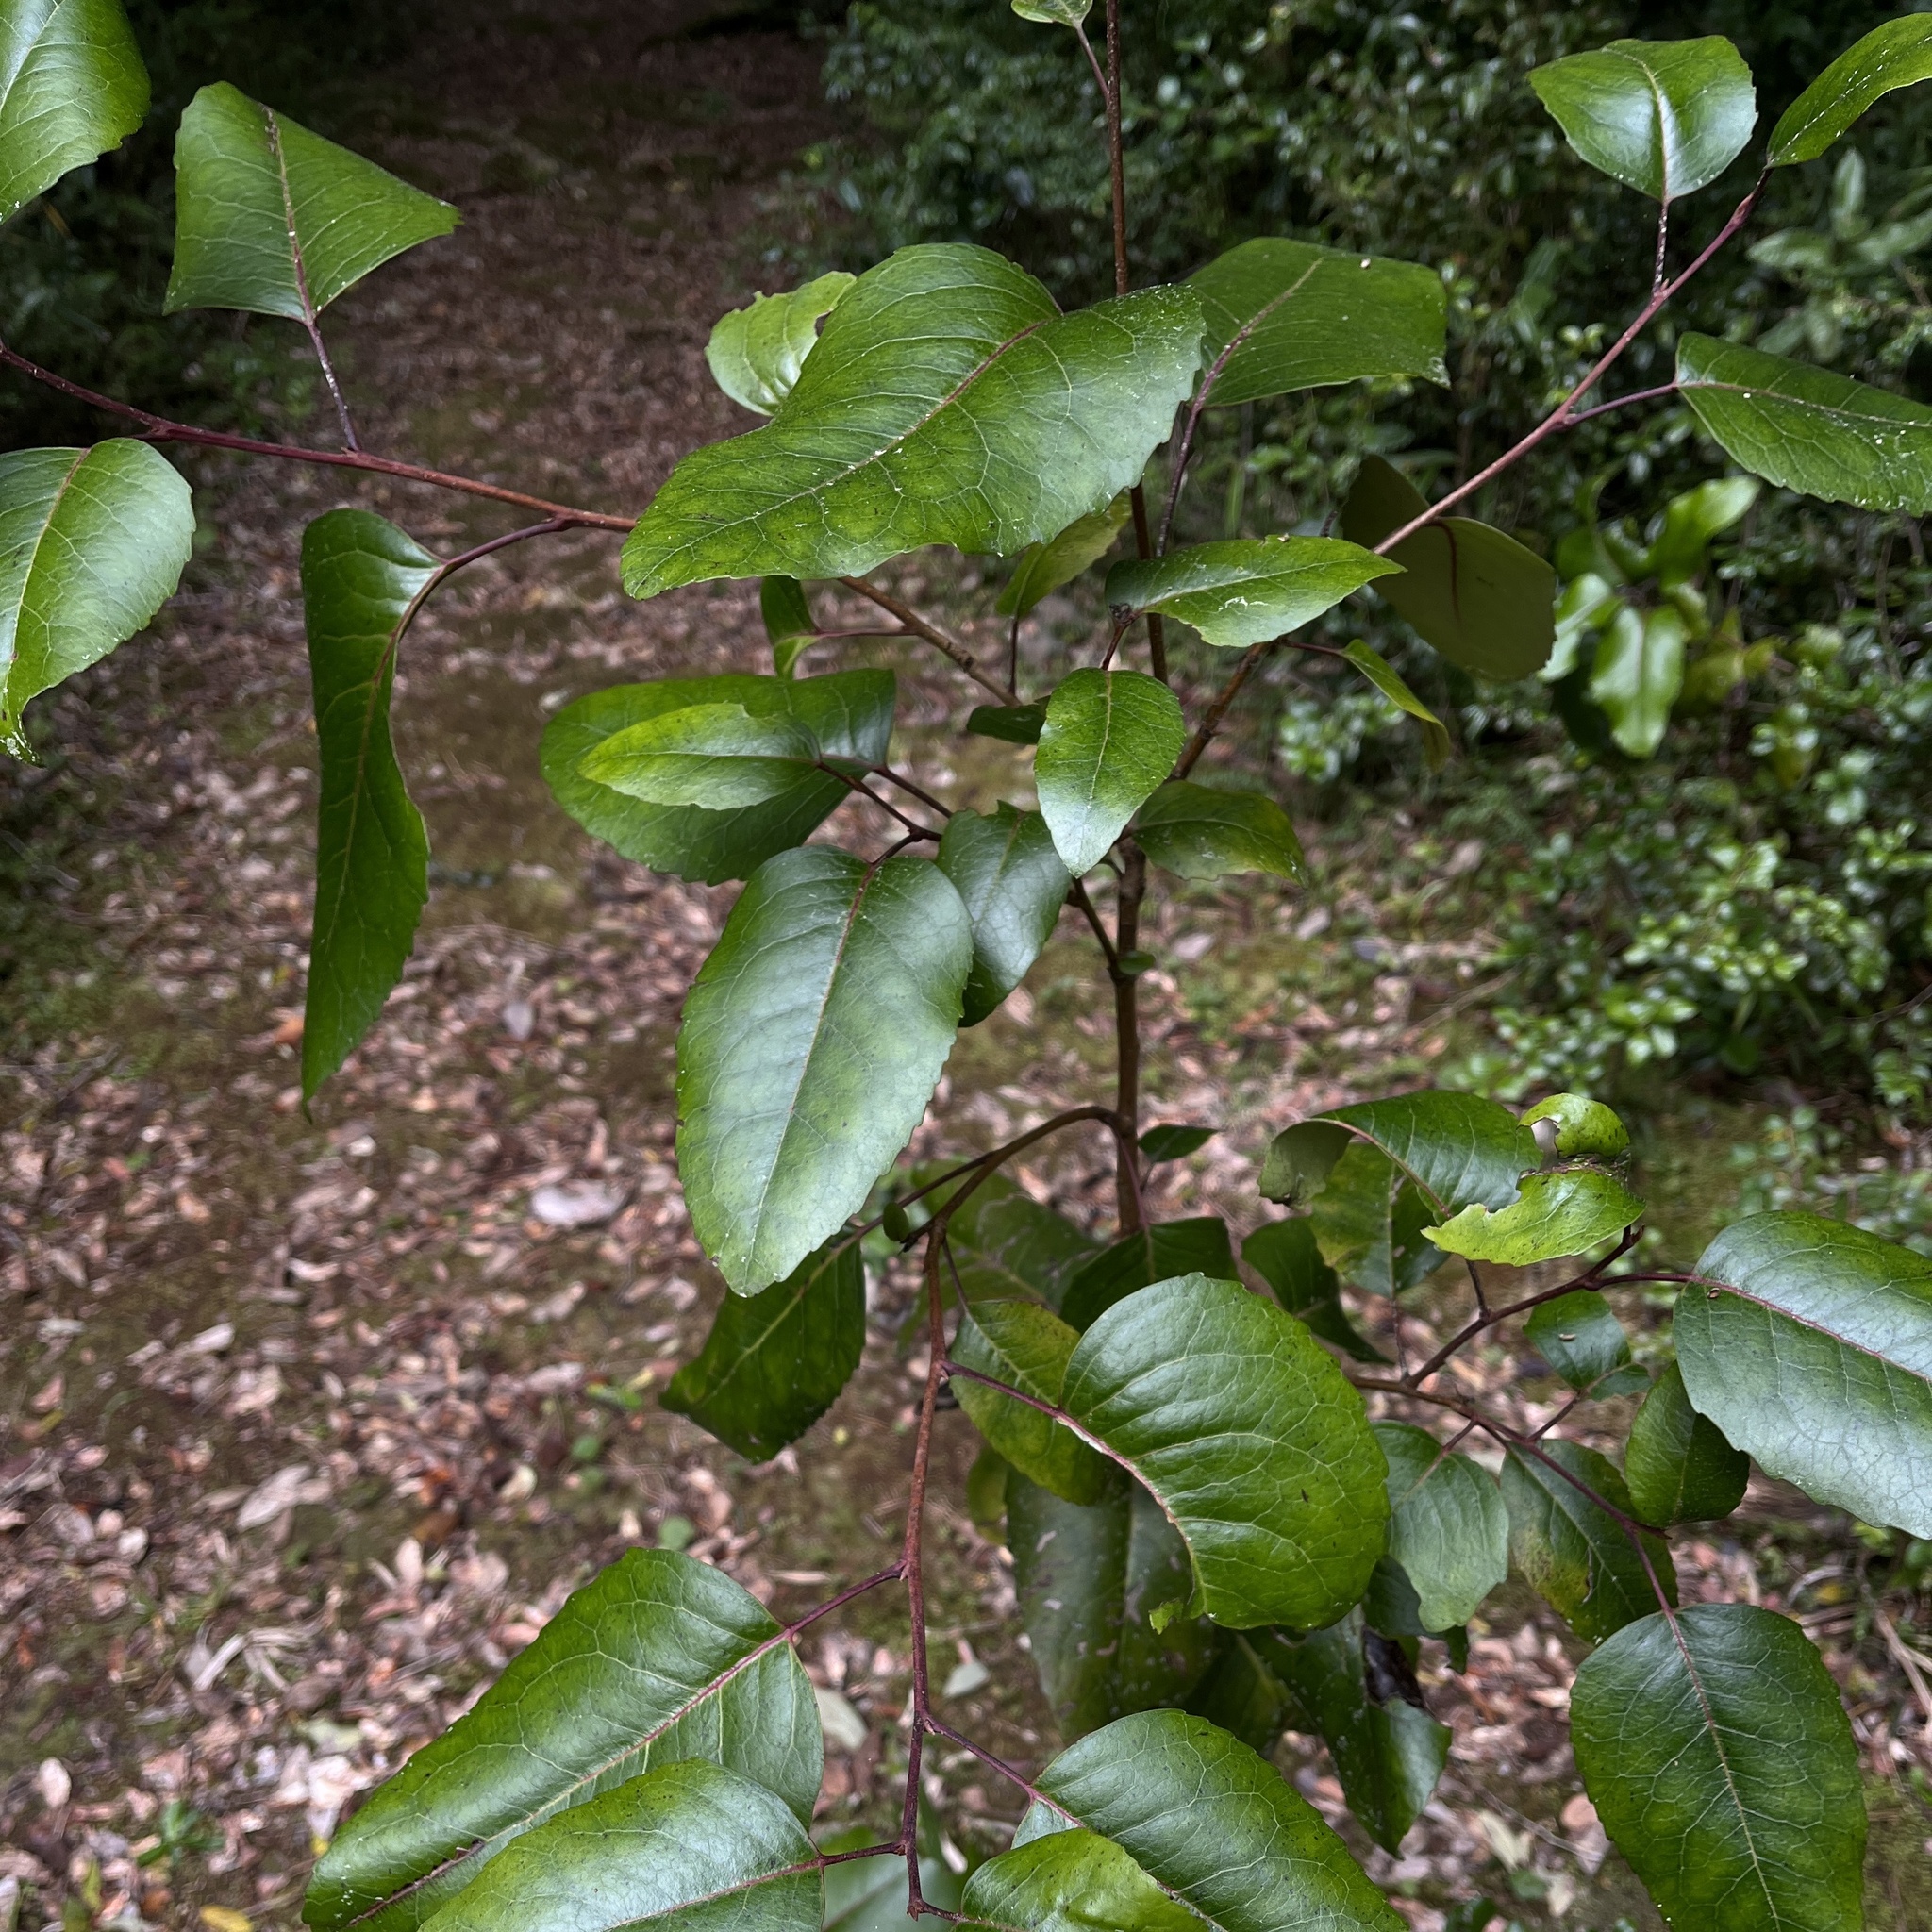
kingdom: Plantae
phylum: Tracheophyta
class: Magnoliopsida
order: Proteales
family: Proteaceae
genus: Lomatia
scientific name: Lomatia hirsuta
